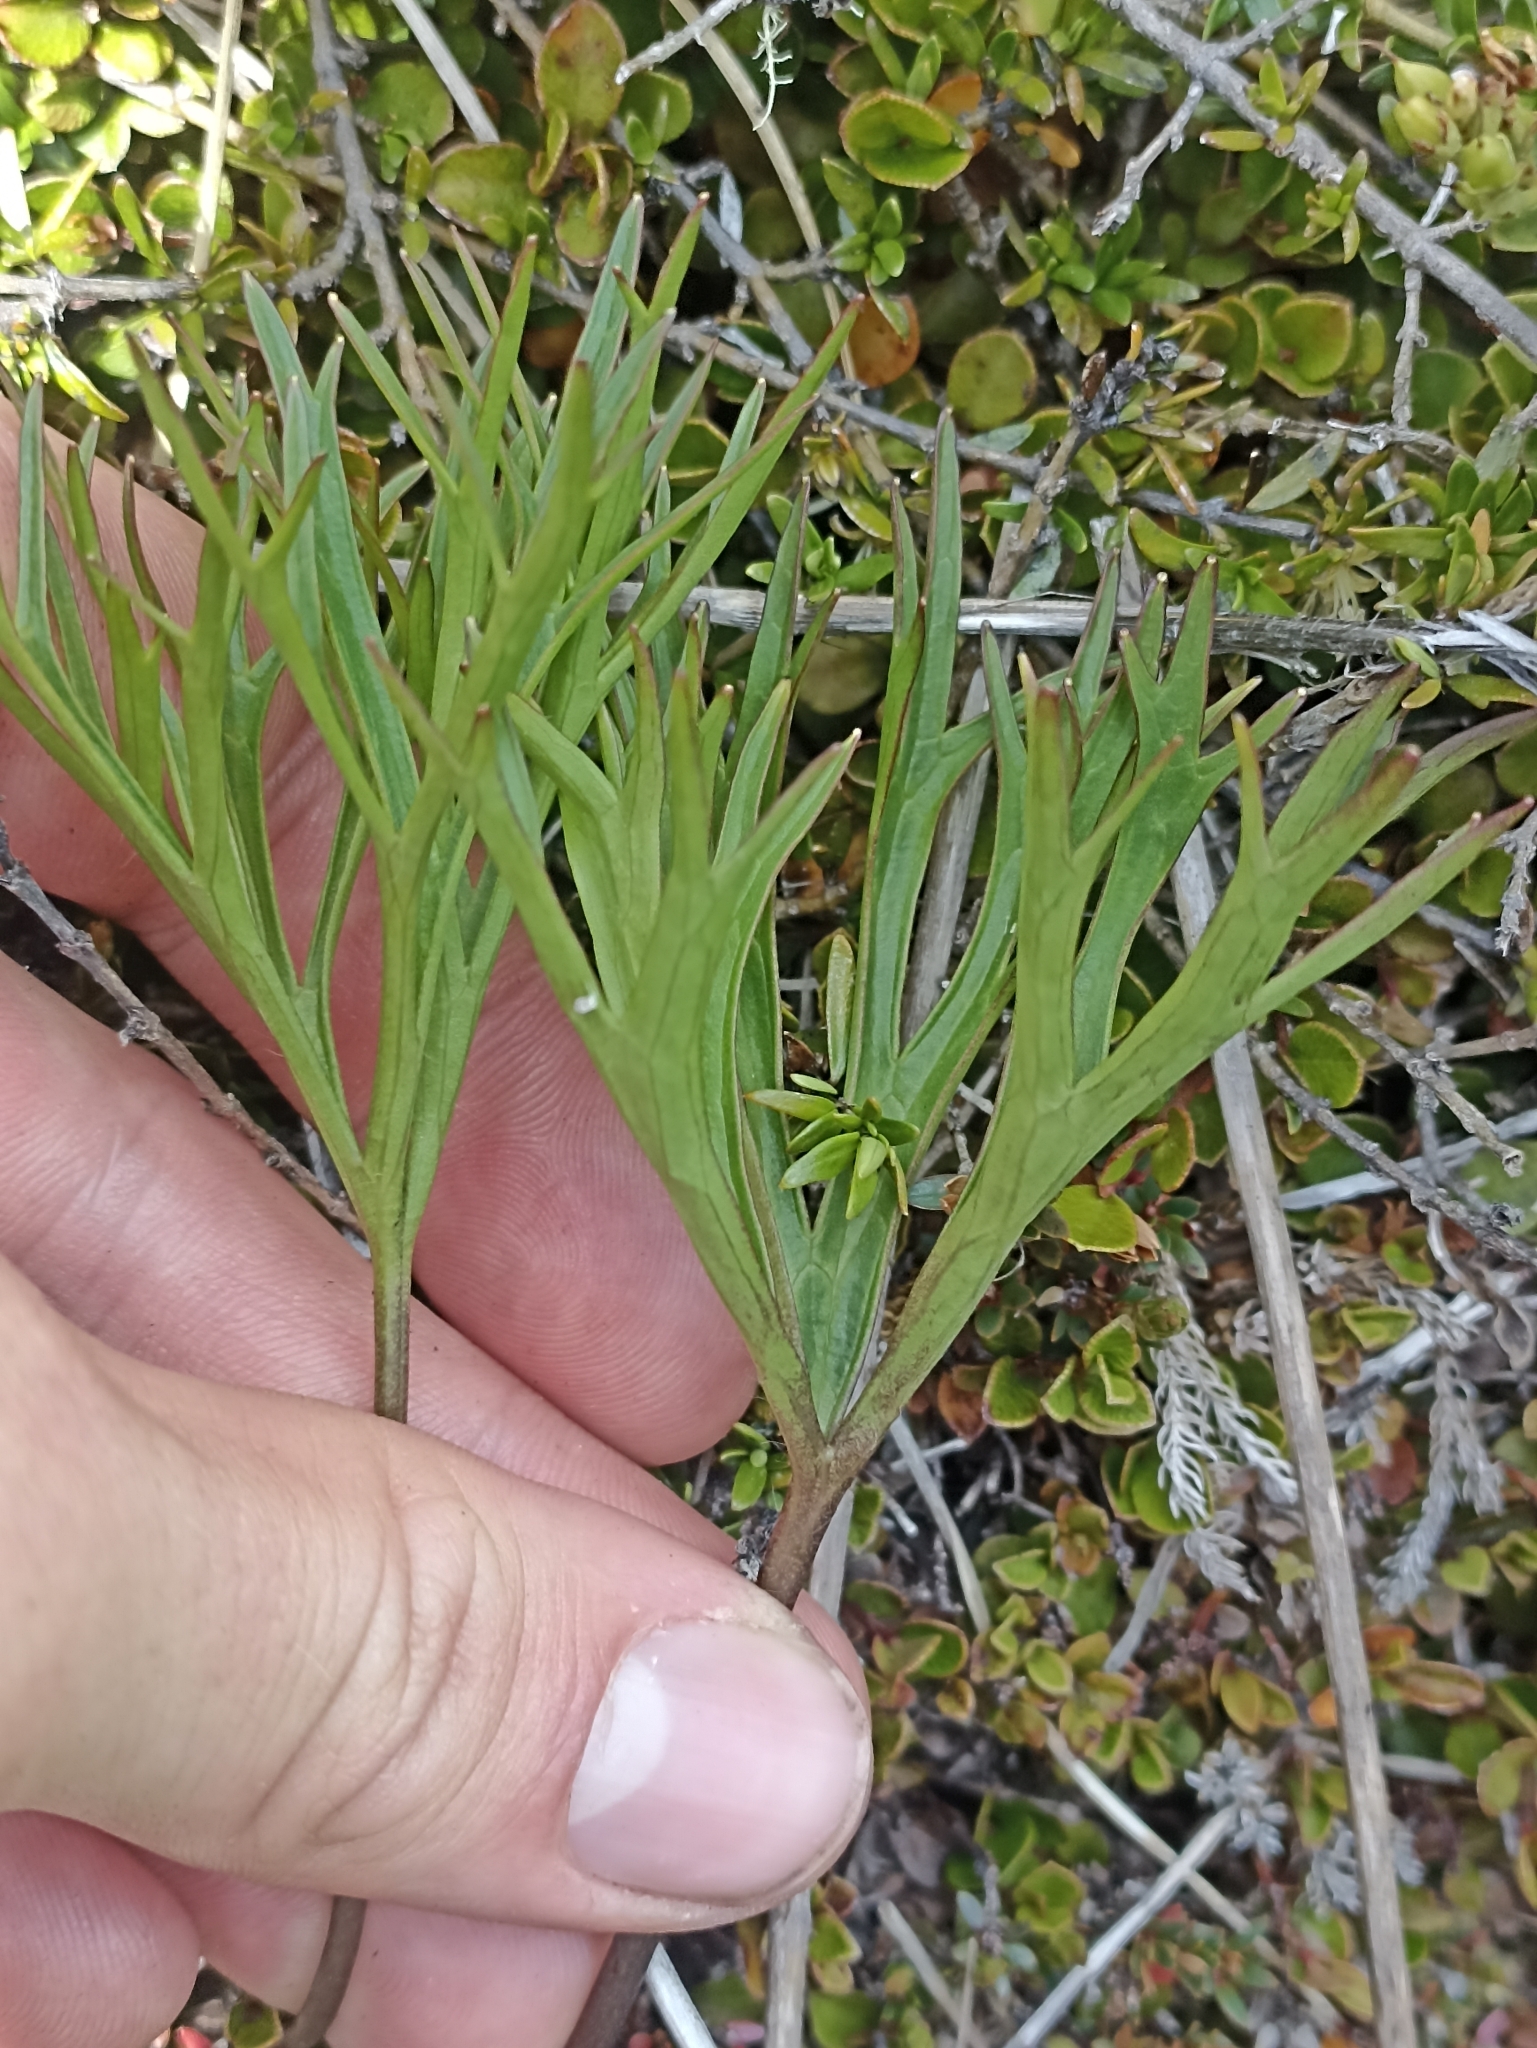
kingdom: Plantae
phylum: Tracheophyta
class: Magnoliopsida
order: Ranunculales
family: Ranunculaceae
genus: Ranunculus
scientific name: Ranunculus verticillatus
